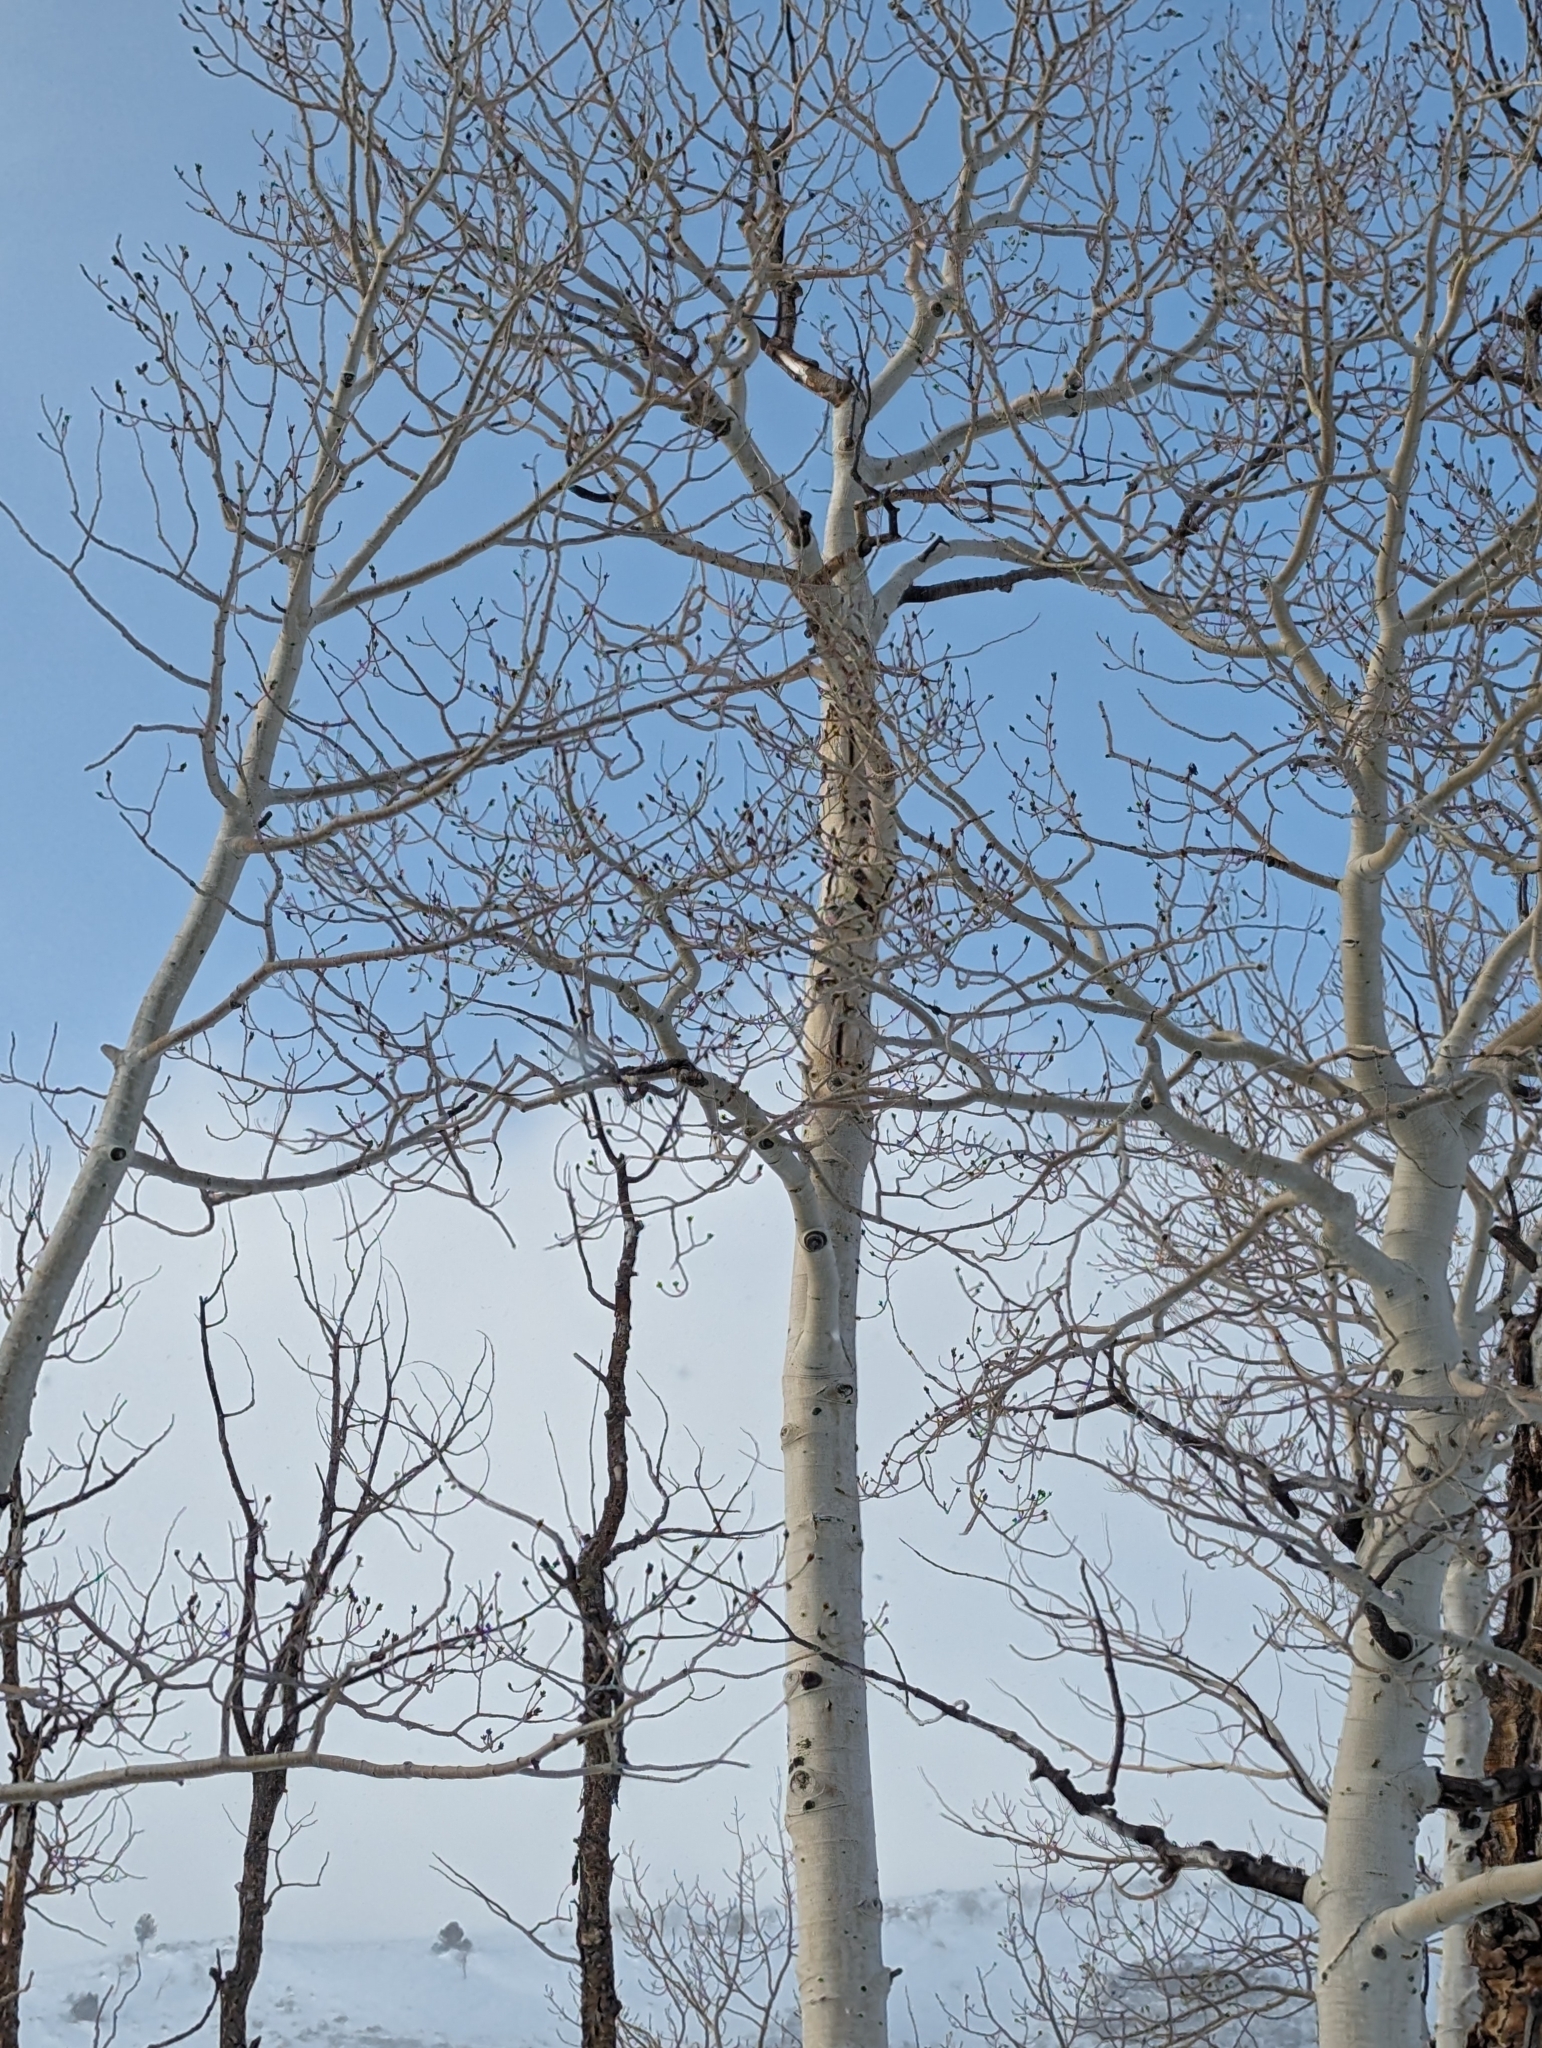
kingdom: Plantae
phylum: Tracheophyta
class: Magnoliopsida
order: Malpighiales
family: Salicaceae
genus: Populus
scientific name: Populus tremuloides
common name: Quaking aspen
